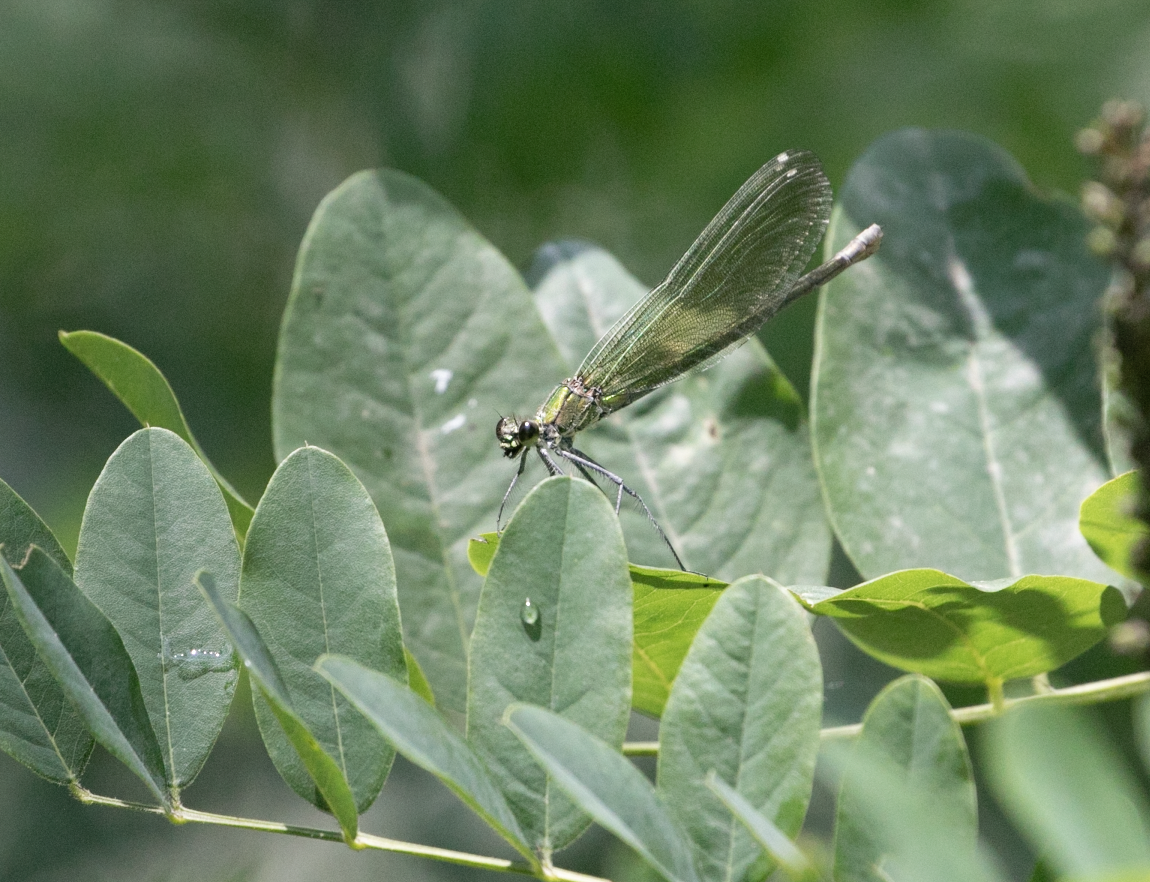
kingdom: Animalia
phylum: Arthropoda
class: Insecta
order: Odonata
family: Calopterygidae
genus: Calopteryx
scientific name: Calopteryx splendens
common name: Banded demoiselle
